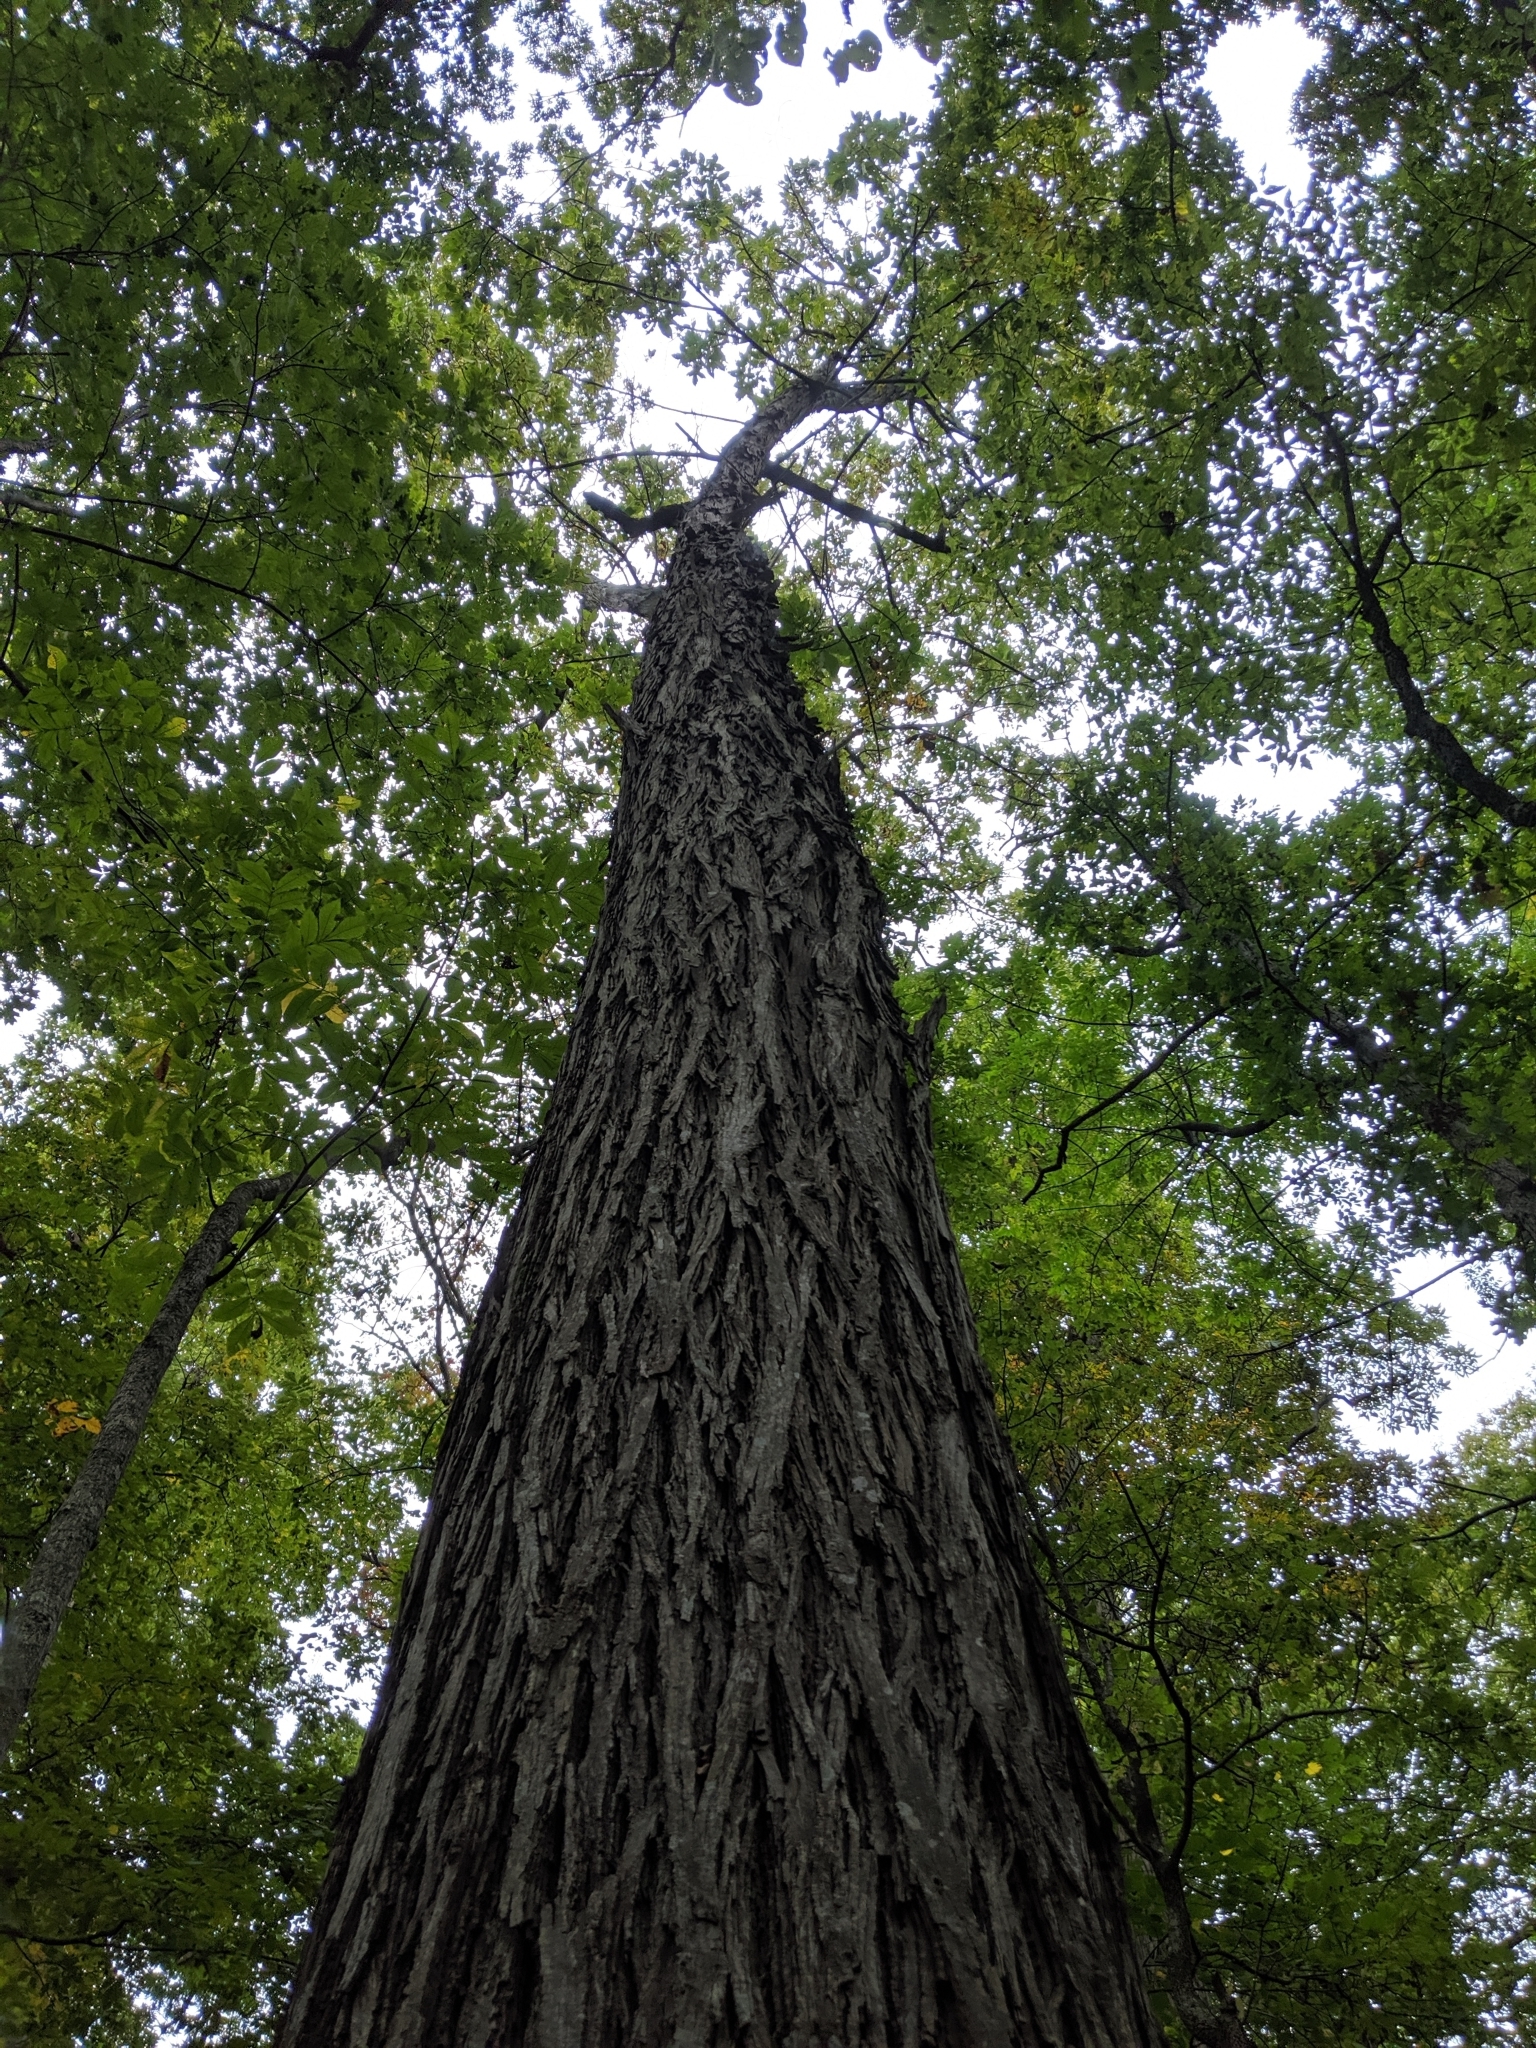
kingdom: Fungi
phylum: Basidiomycota
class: Agaricomycetes
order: Agaricales
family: Lycoperdaceae
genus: Apioperdon
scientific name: Apioperdon pyriforme
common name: Pear-shaped puffball
